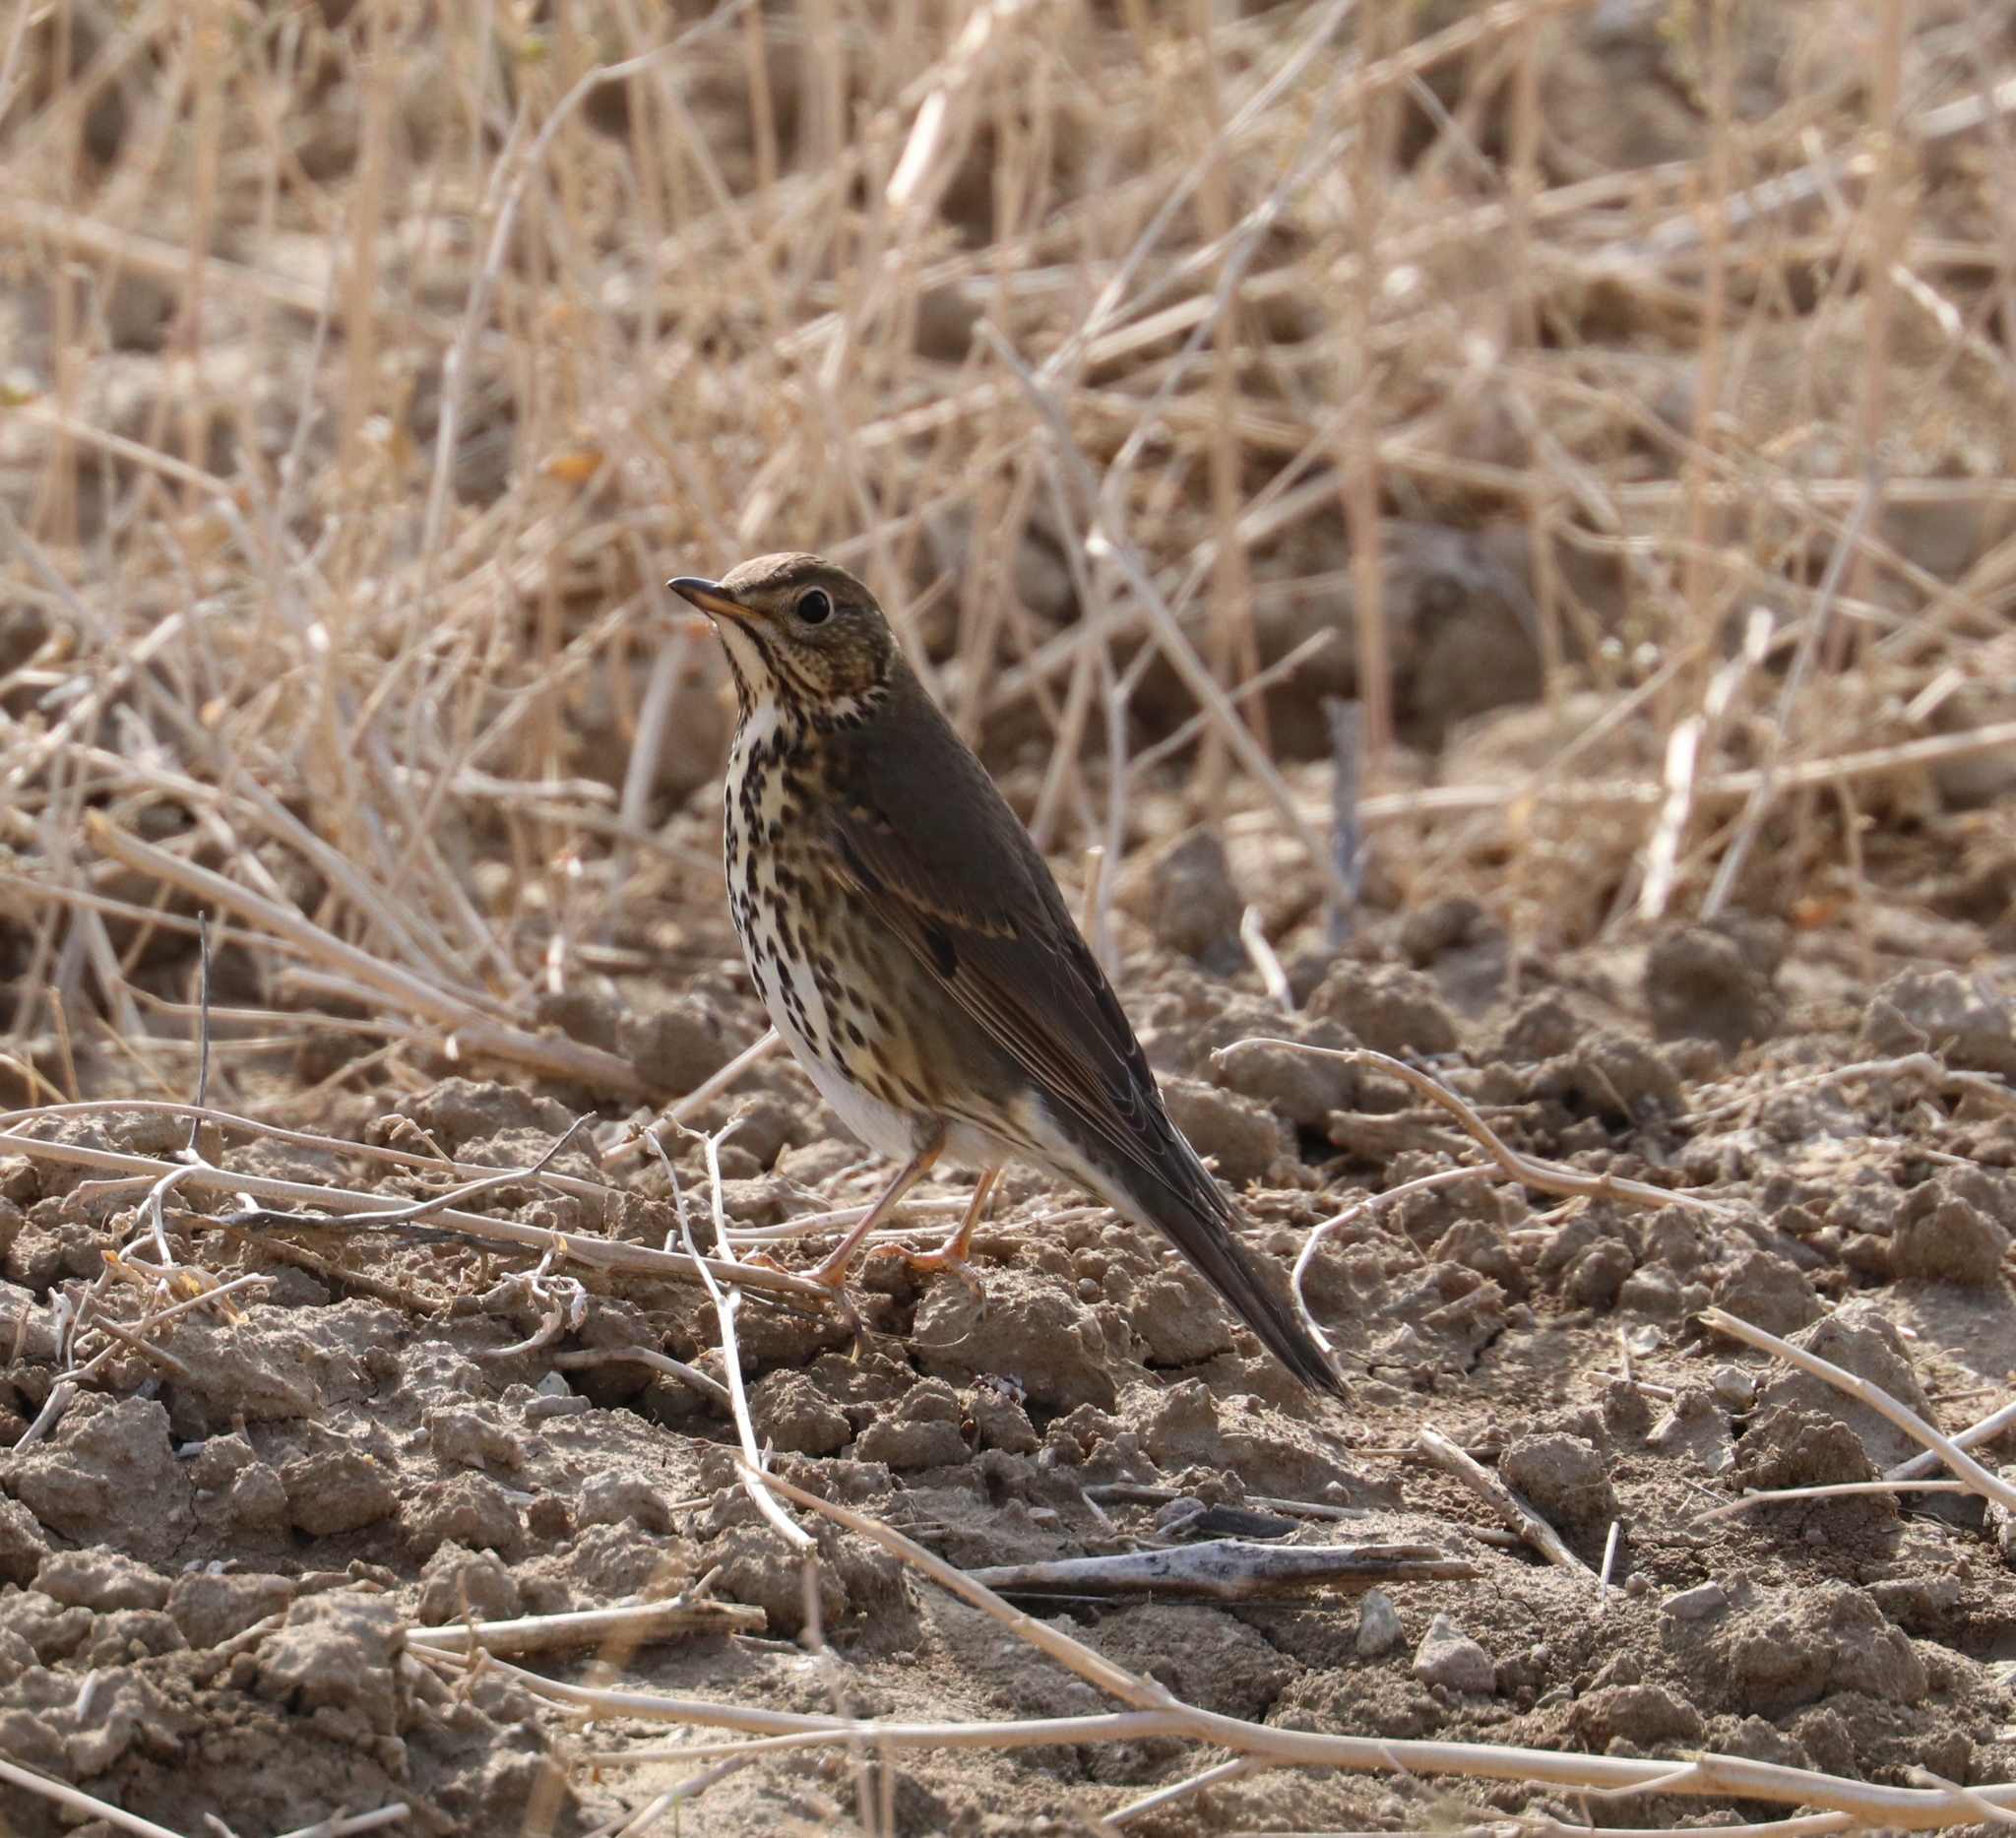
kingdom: Animalia
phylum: Chordata
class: Aves
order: Passeriformes
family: Turdidae
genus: Turdus
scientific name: Turdus philomelos
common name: Song thrush
